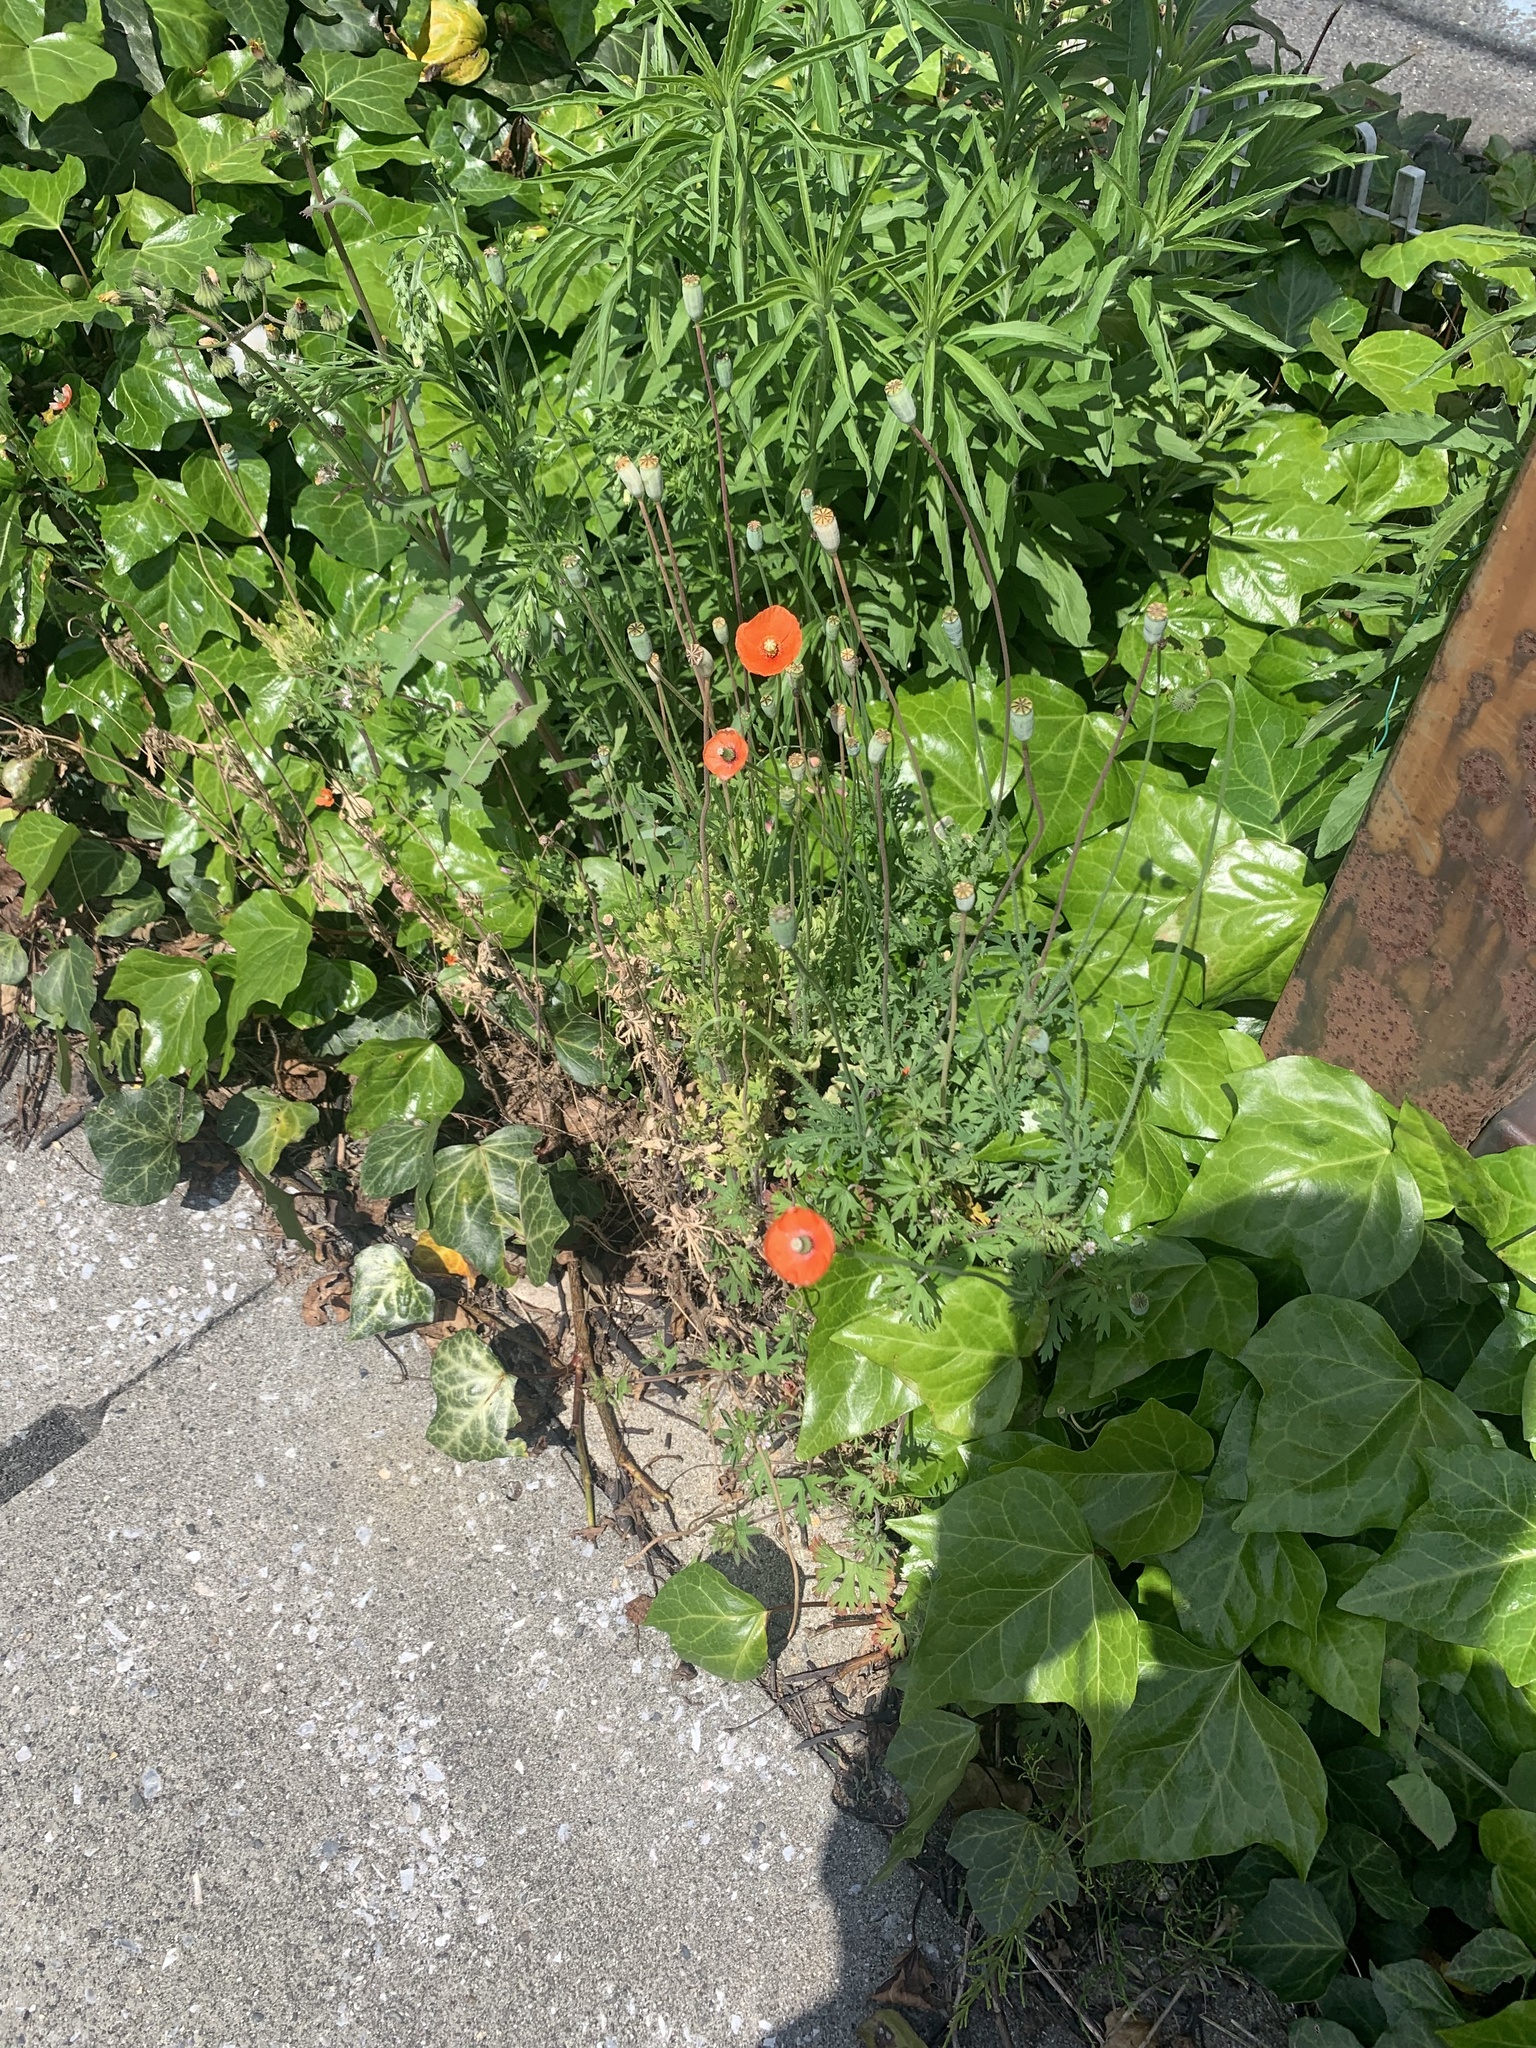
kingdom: Plantae
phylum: Tracheophyta
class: Magnoliopsida
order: Ranunculales
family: Papaveraceae
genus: Papaver
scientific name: Papaver dubium
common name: Long-headed poppy
